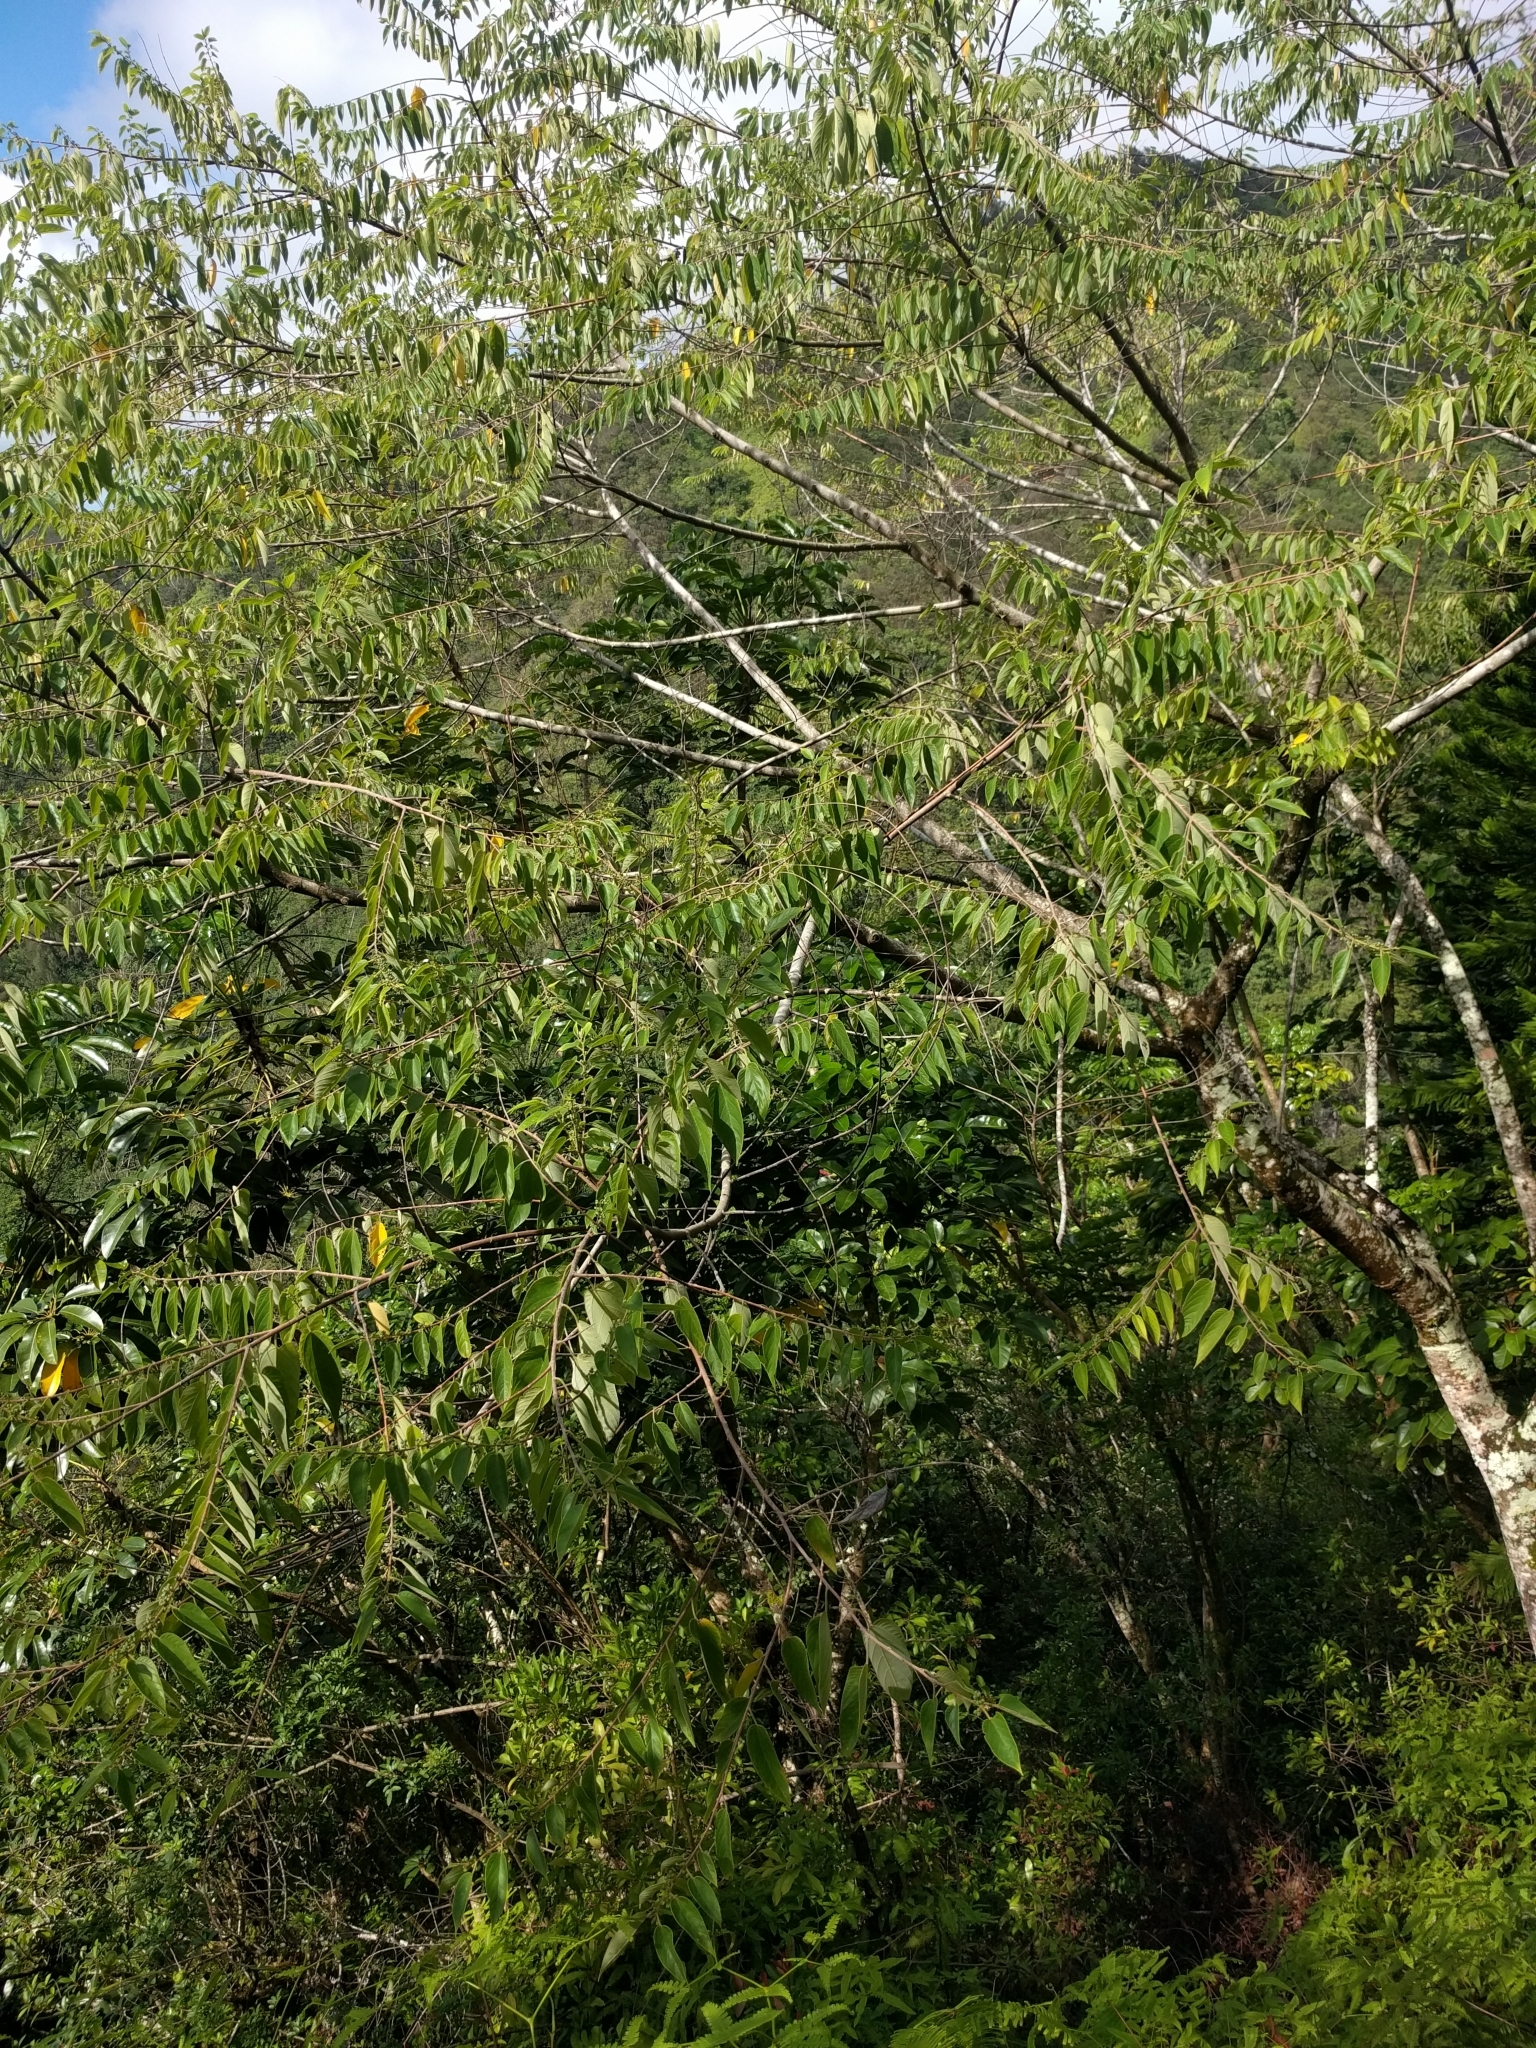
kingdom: Plantae
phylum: Tracheophyta
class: Magnoliopsida
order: Rosales
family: Cannabaceae
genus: Trema
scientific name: Trema orientale
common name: Indian charcoal tree
